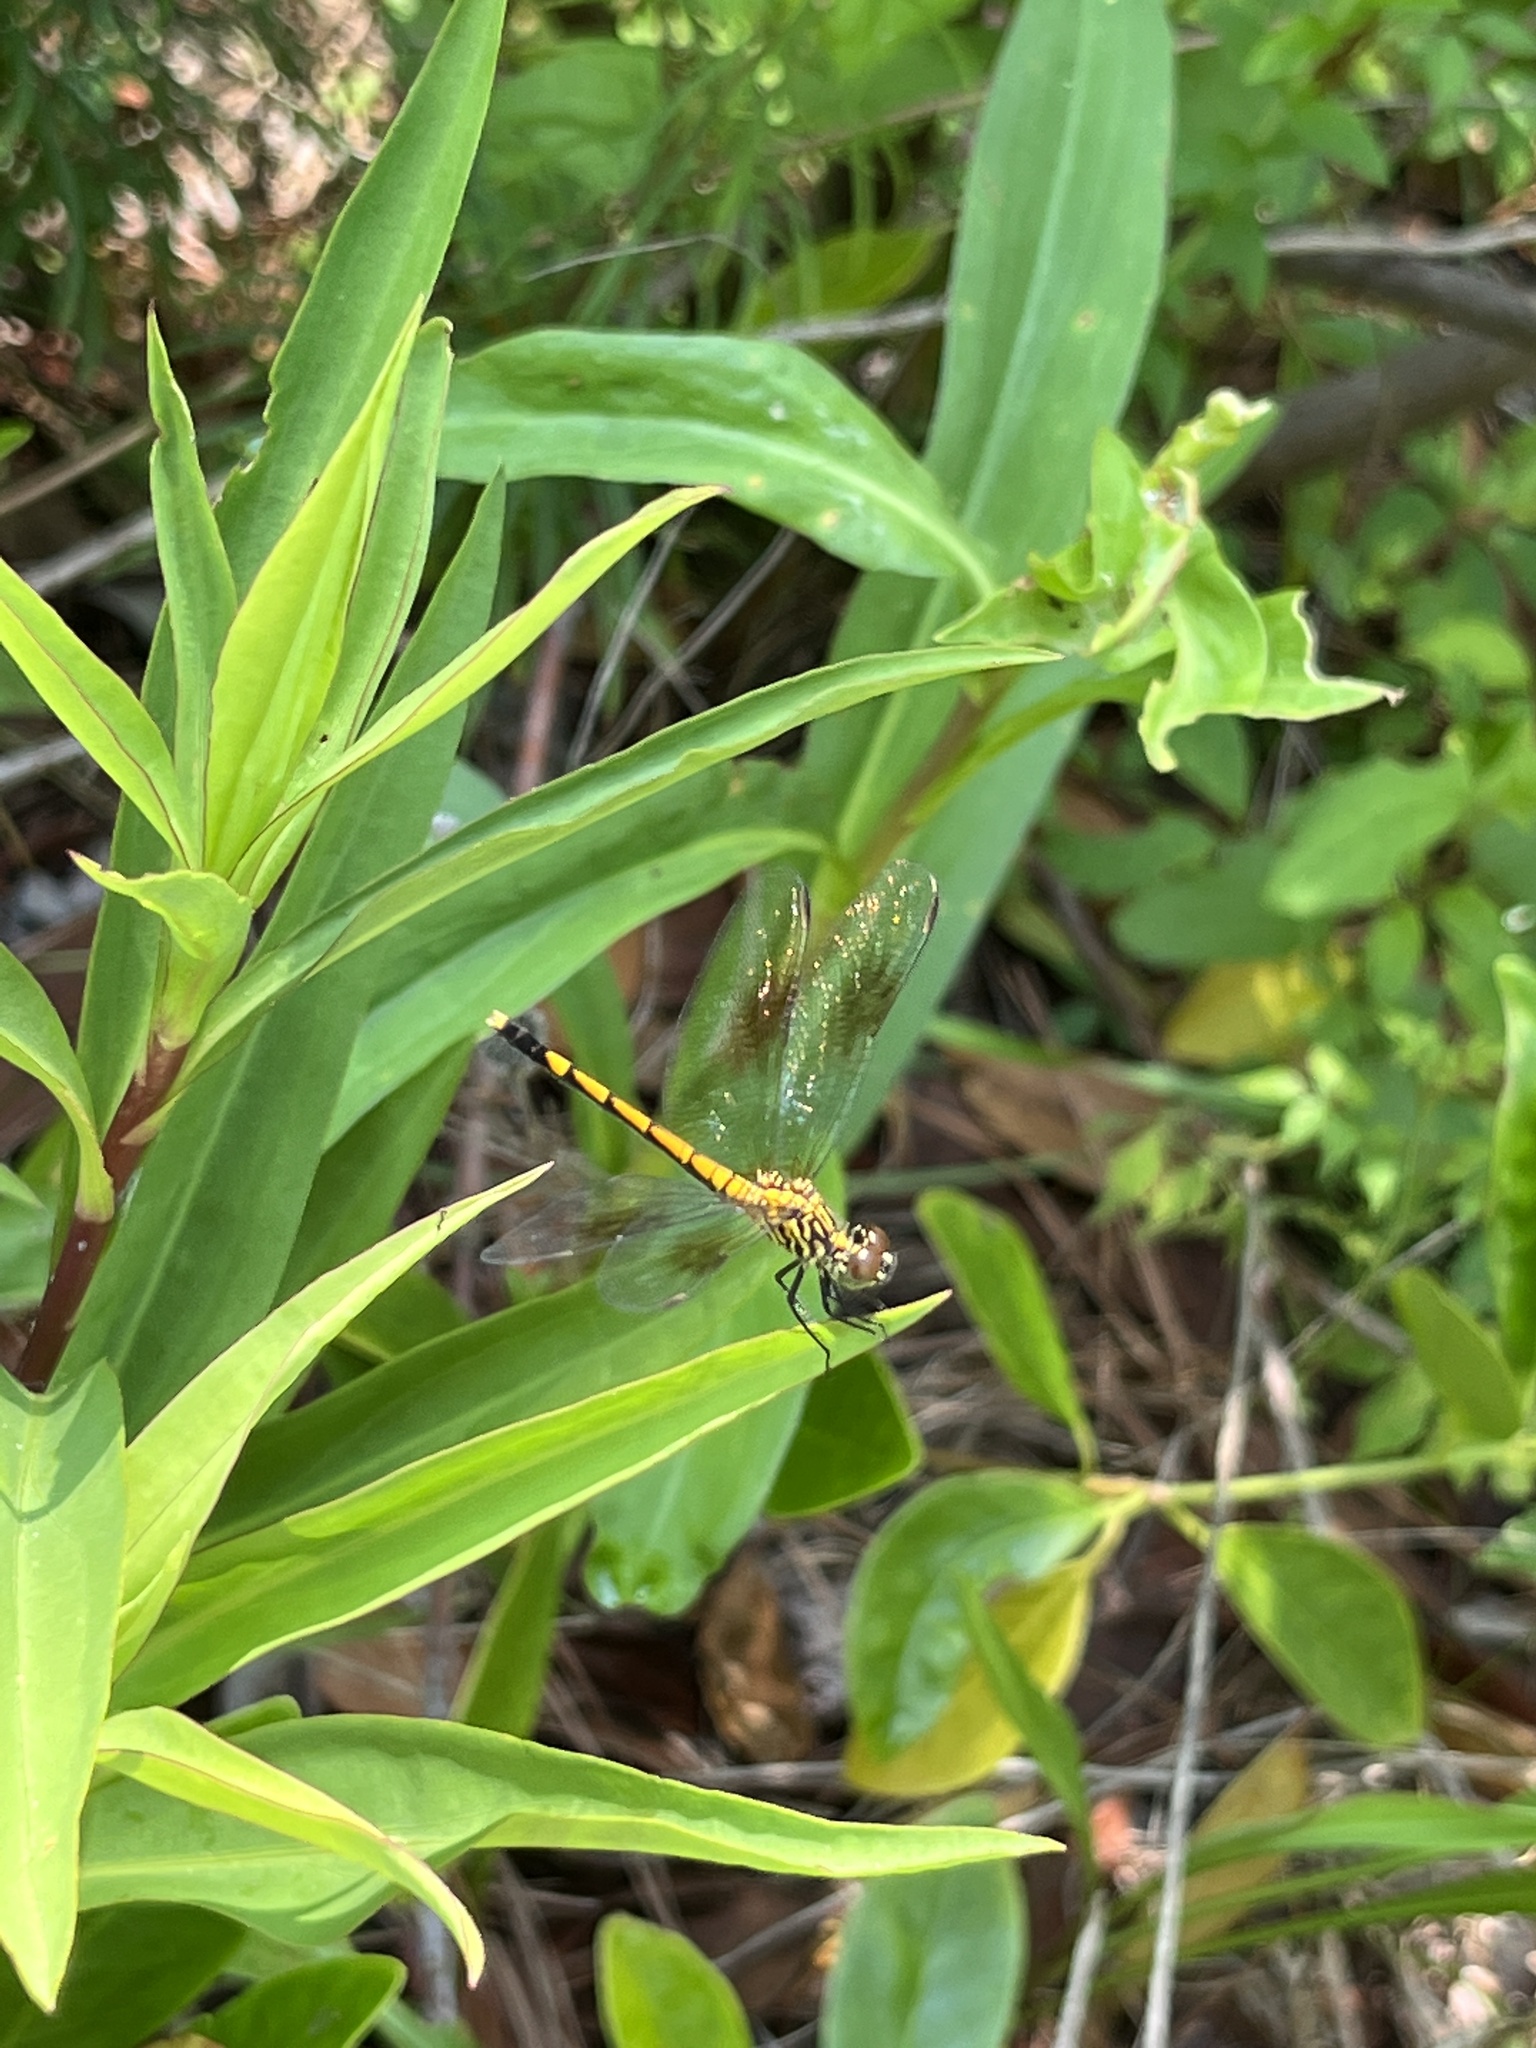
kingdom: Animalia
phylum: Arthropoda
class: Insecta
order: Odonata
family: Libellulidae
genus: Erythrodiplax
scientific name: Erythrodiplax berenice
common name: Seaside dragonlet
